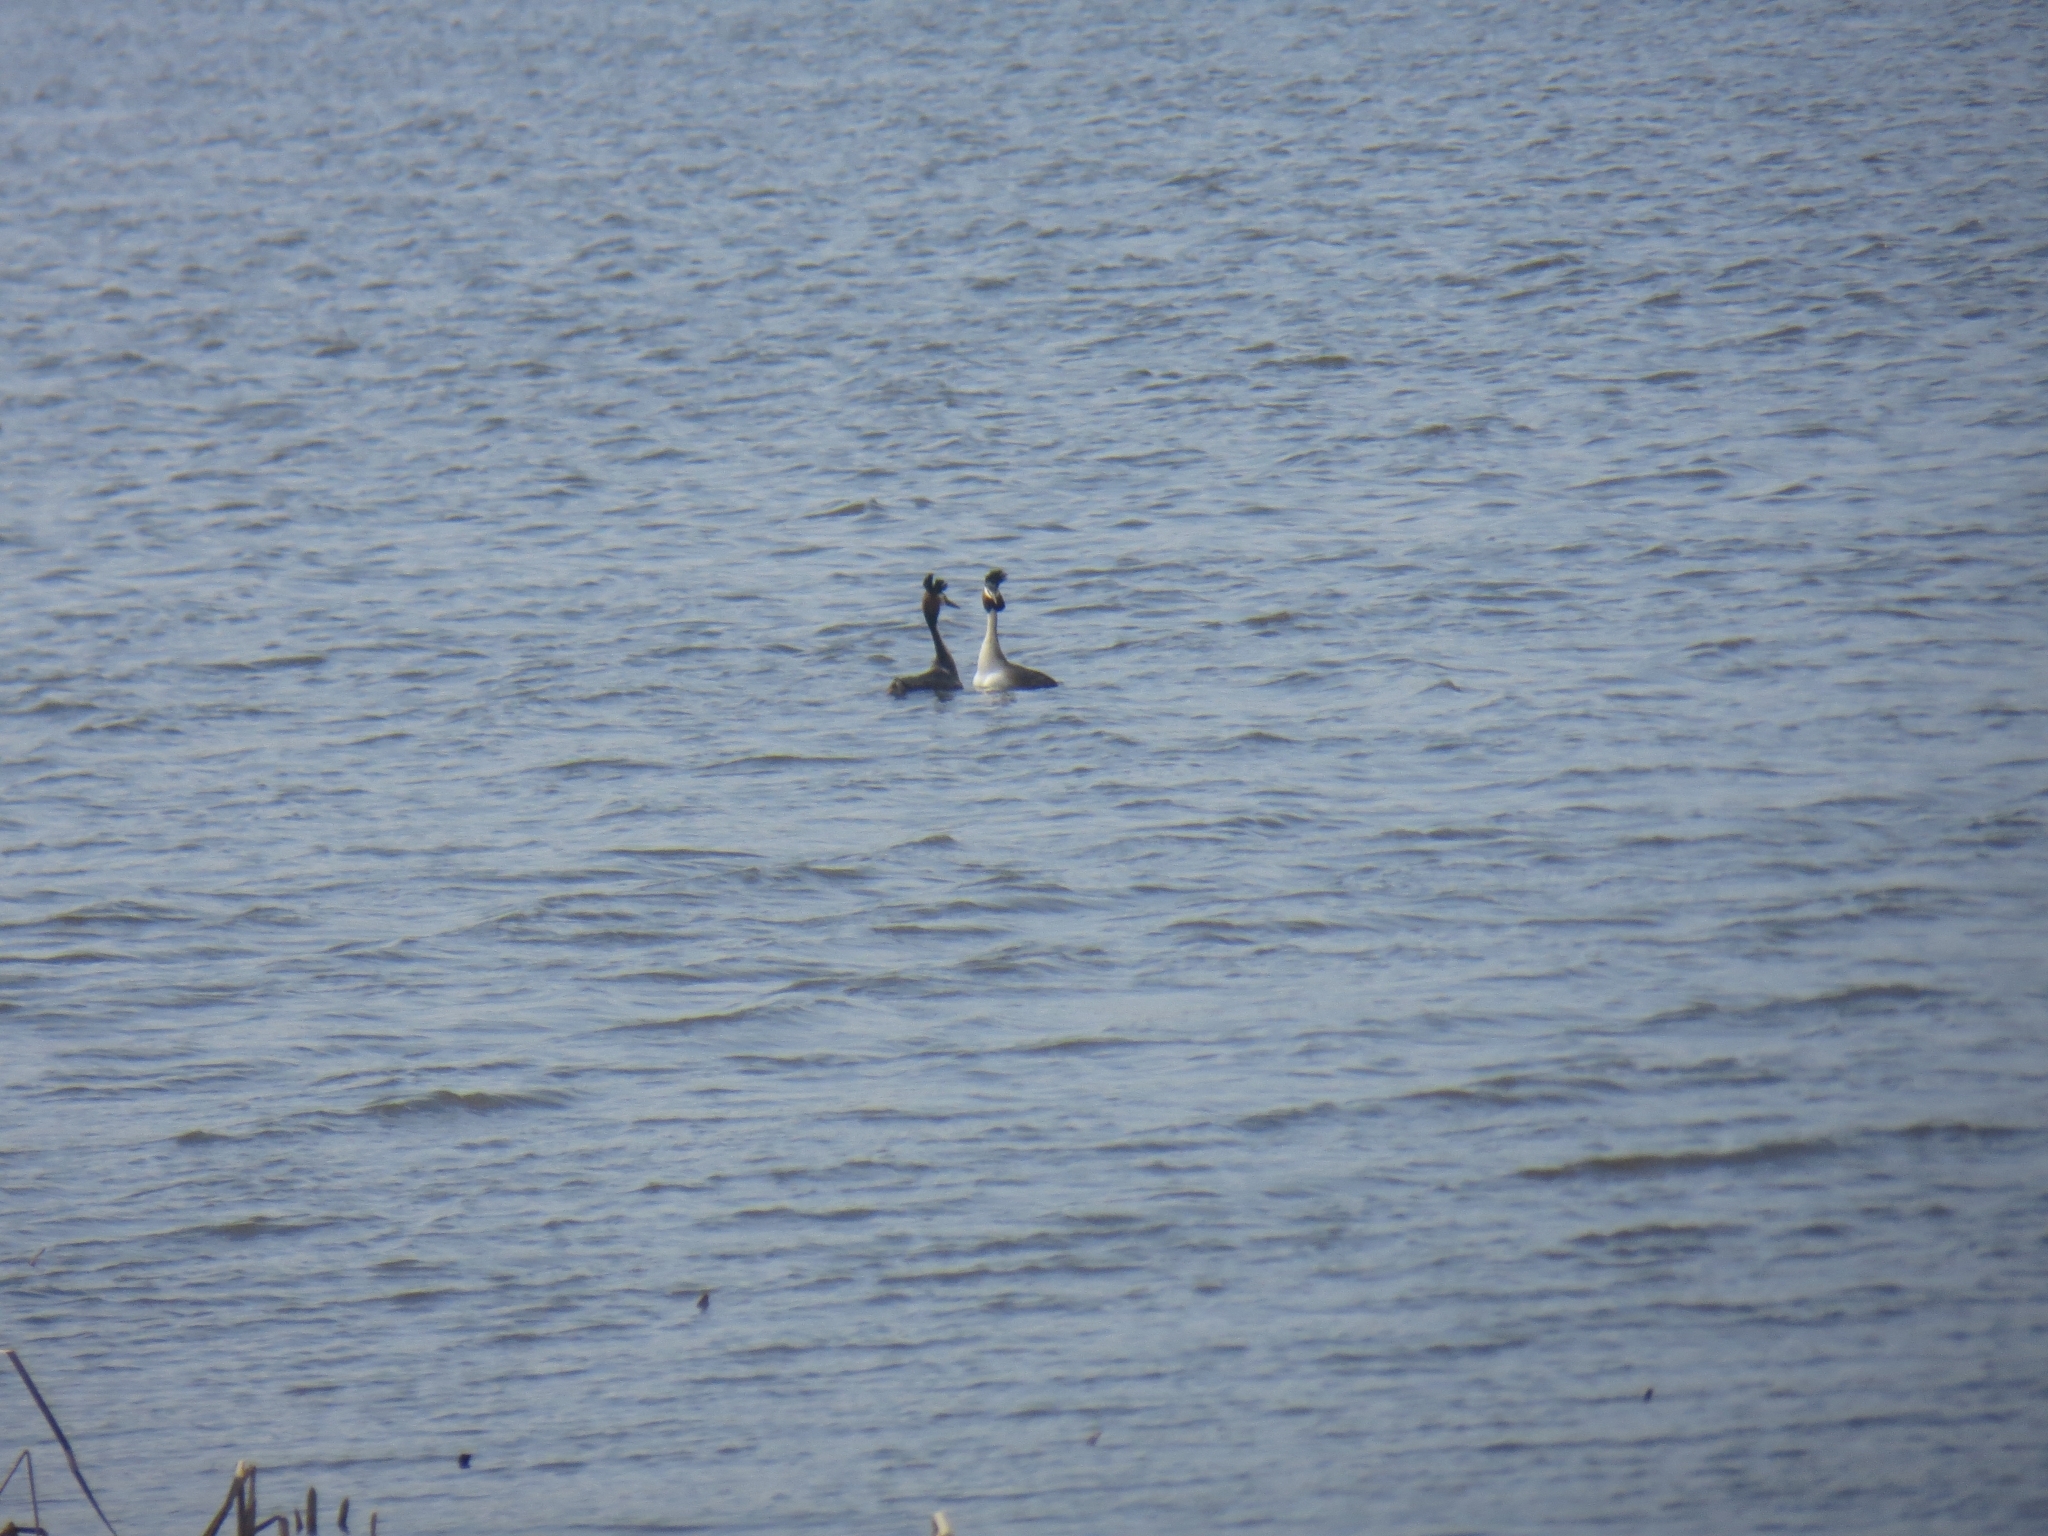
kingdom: Animalia
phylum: Chordata
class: Aves
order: Podicipediformes
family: Podicipedidae
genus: Podiceps
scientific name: Podiceps cristatus
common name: Great crested grebe
